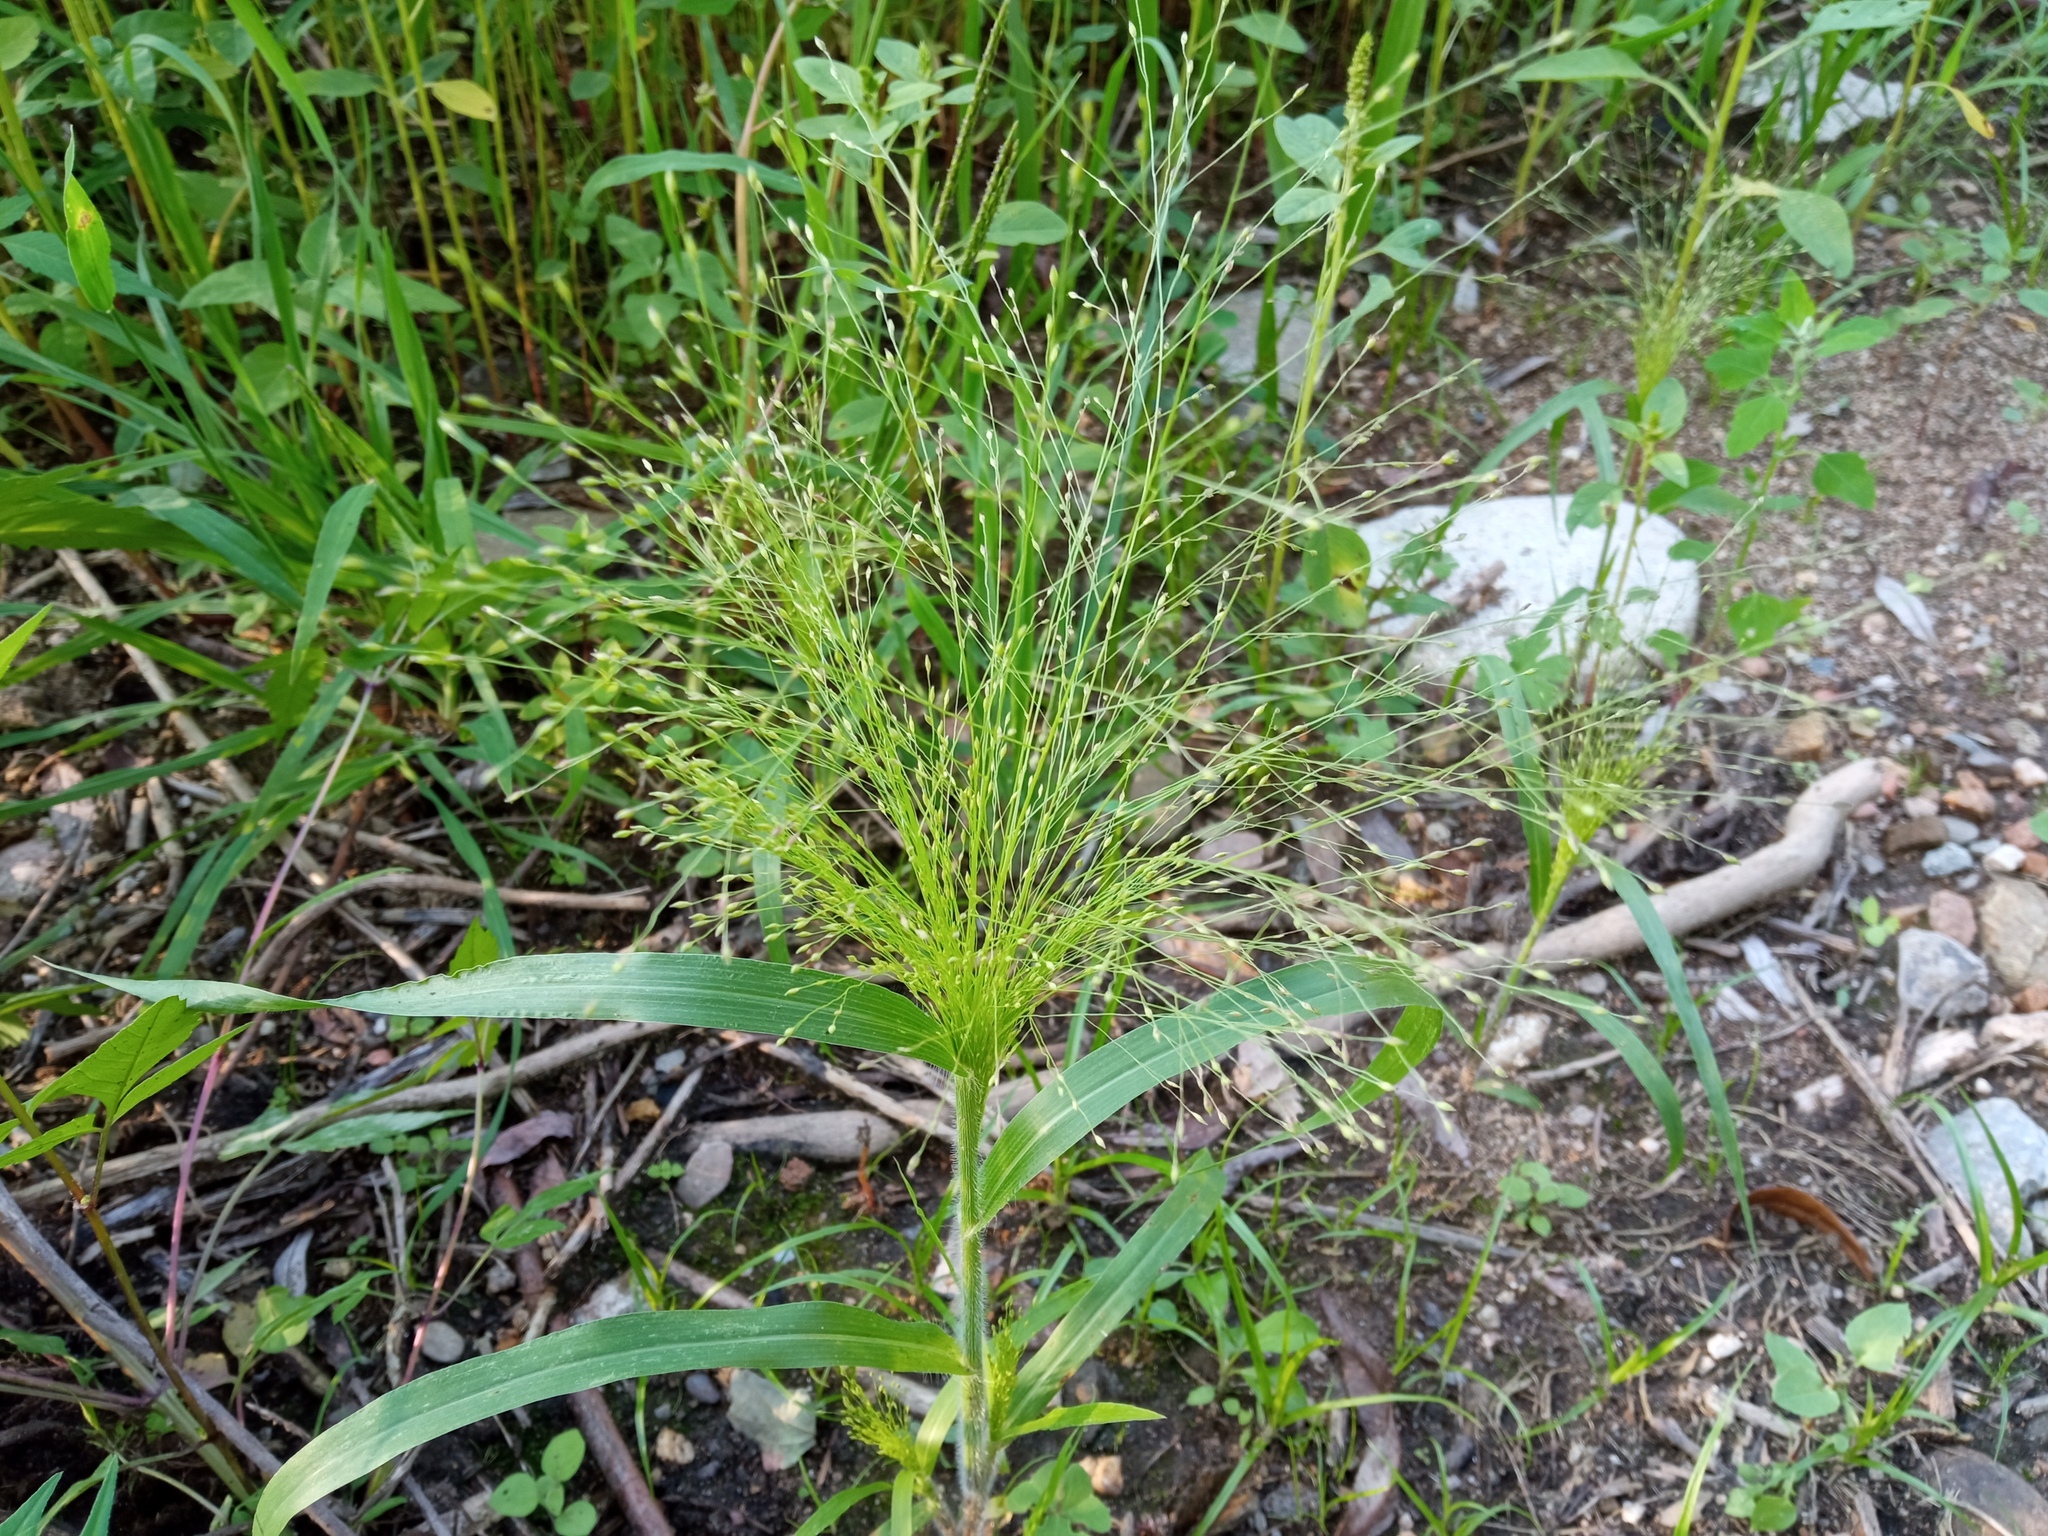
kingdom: Plantae
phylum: Tracheophyta
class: Liliopsida
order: Poales
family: Poaceae
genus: Panicum
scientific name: Panicum capillare
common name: Witch-grass
